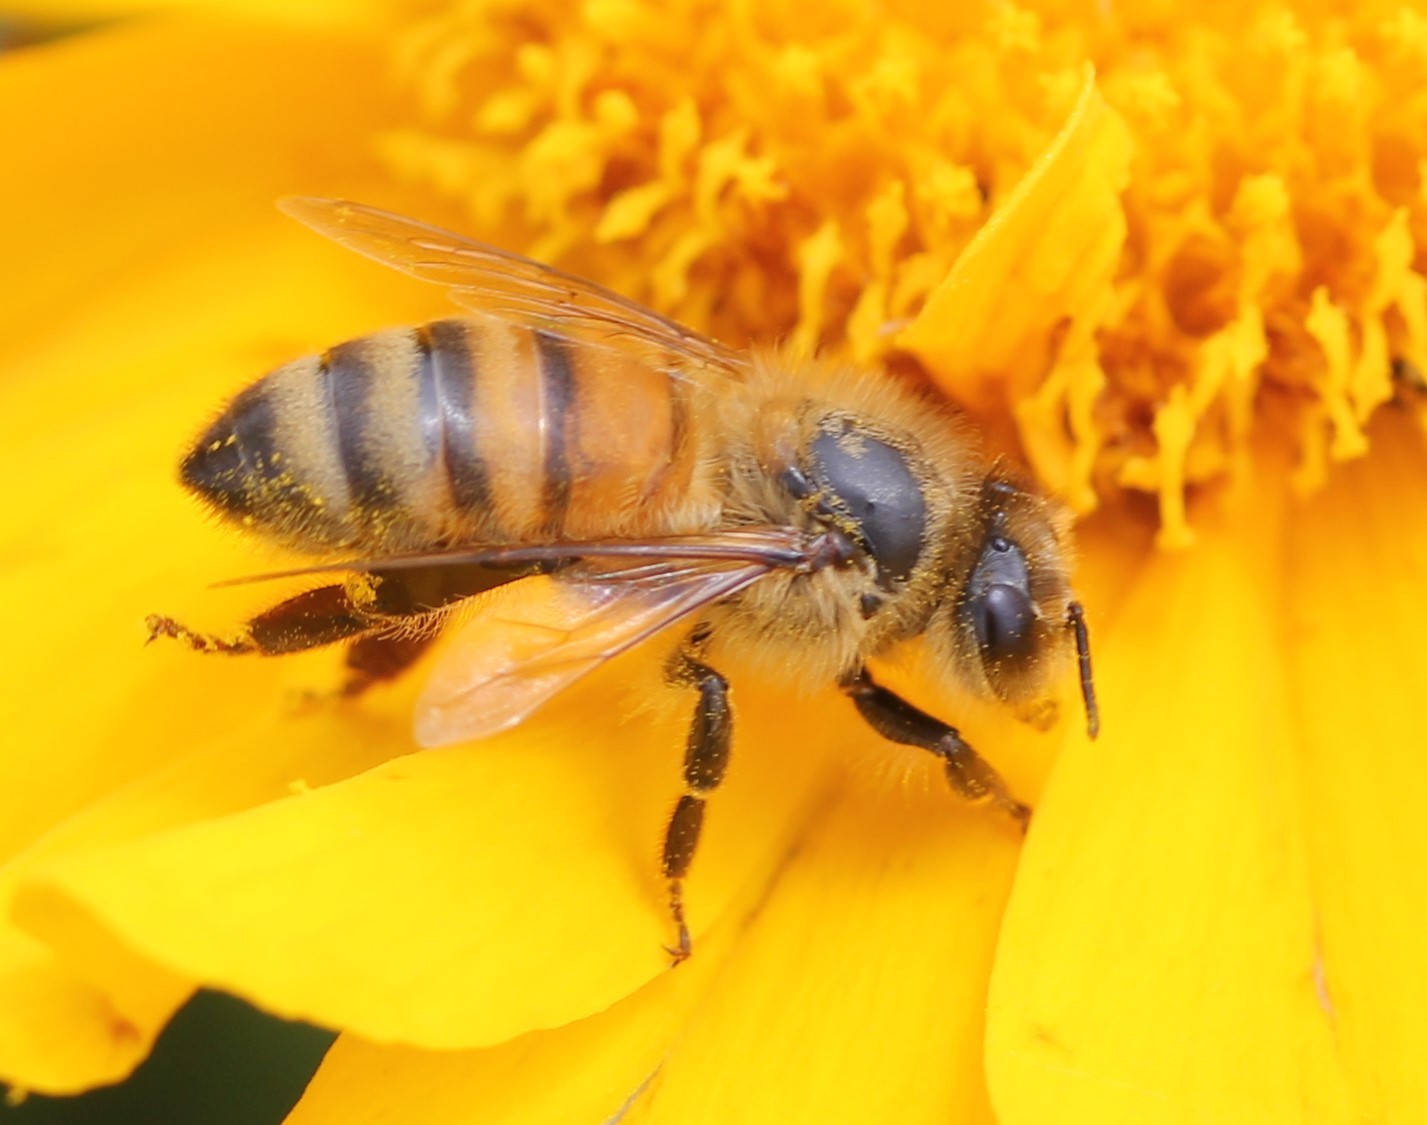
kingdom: Animalia
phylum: Arthropoda
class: Insecta
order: Hymenoptera
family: Apidae
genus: Apis
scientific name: Apis mellifera
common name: Honey bee
